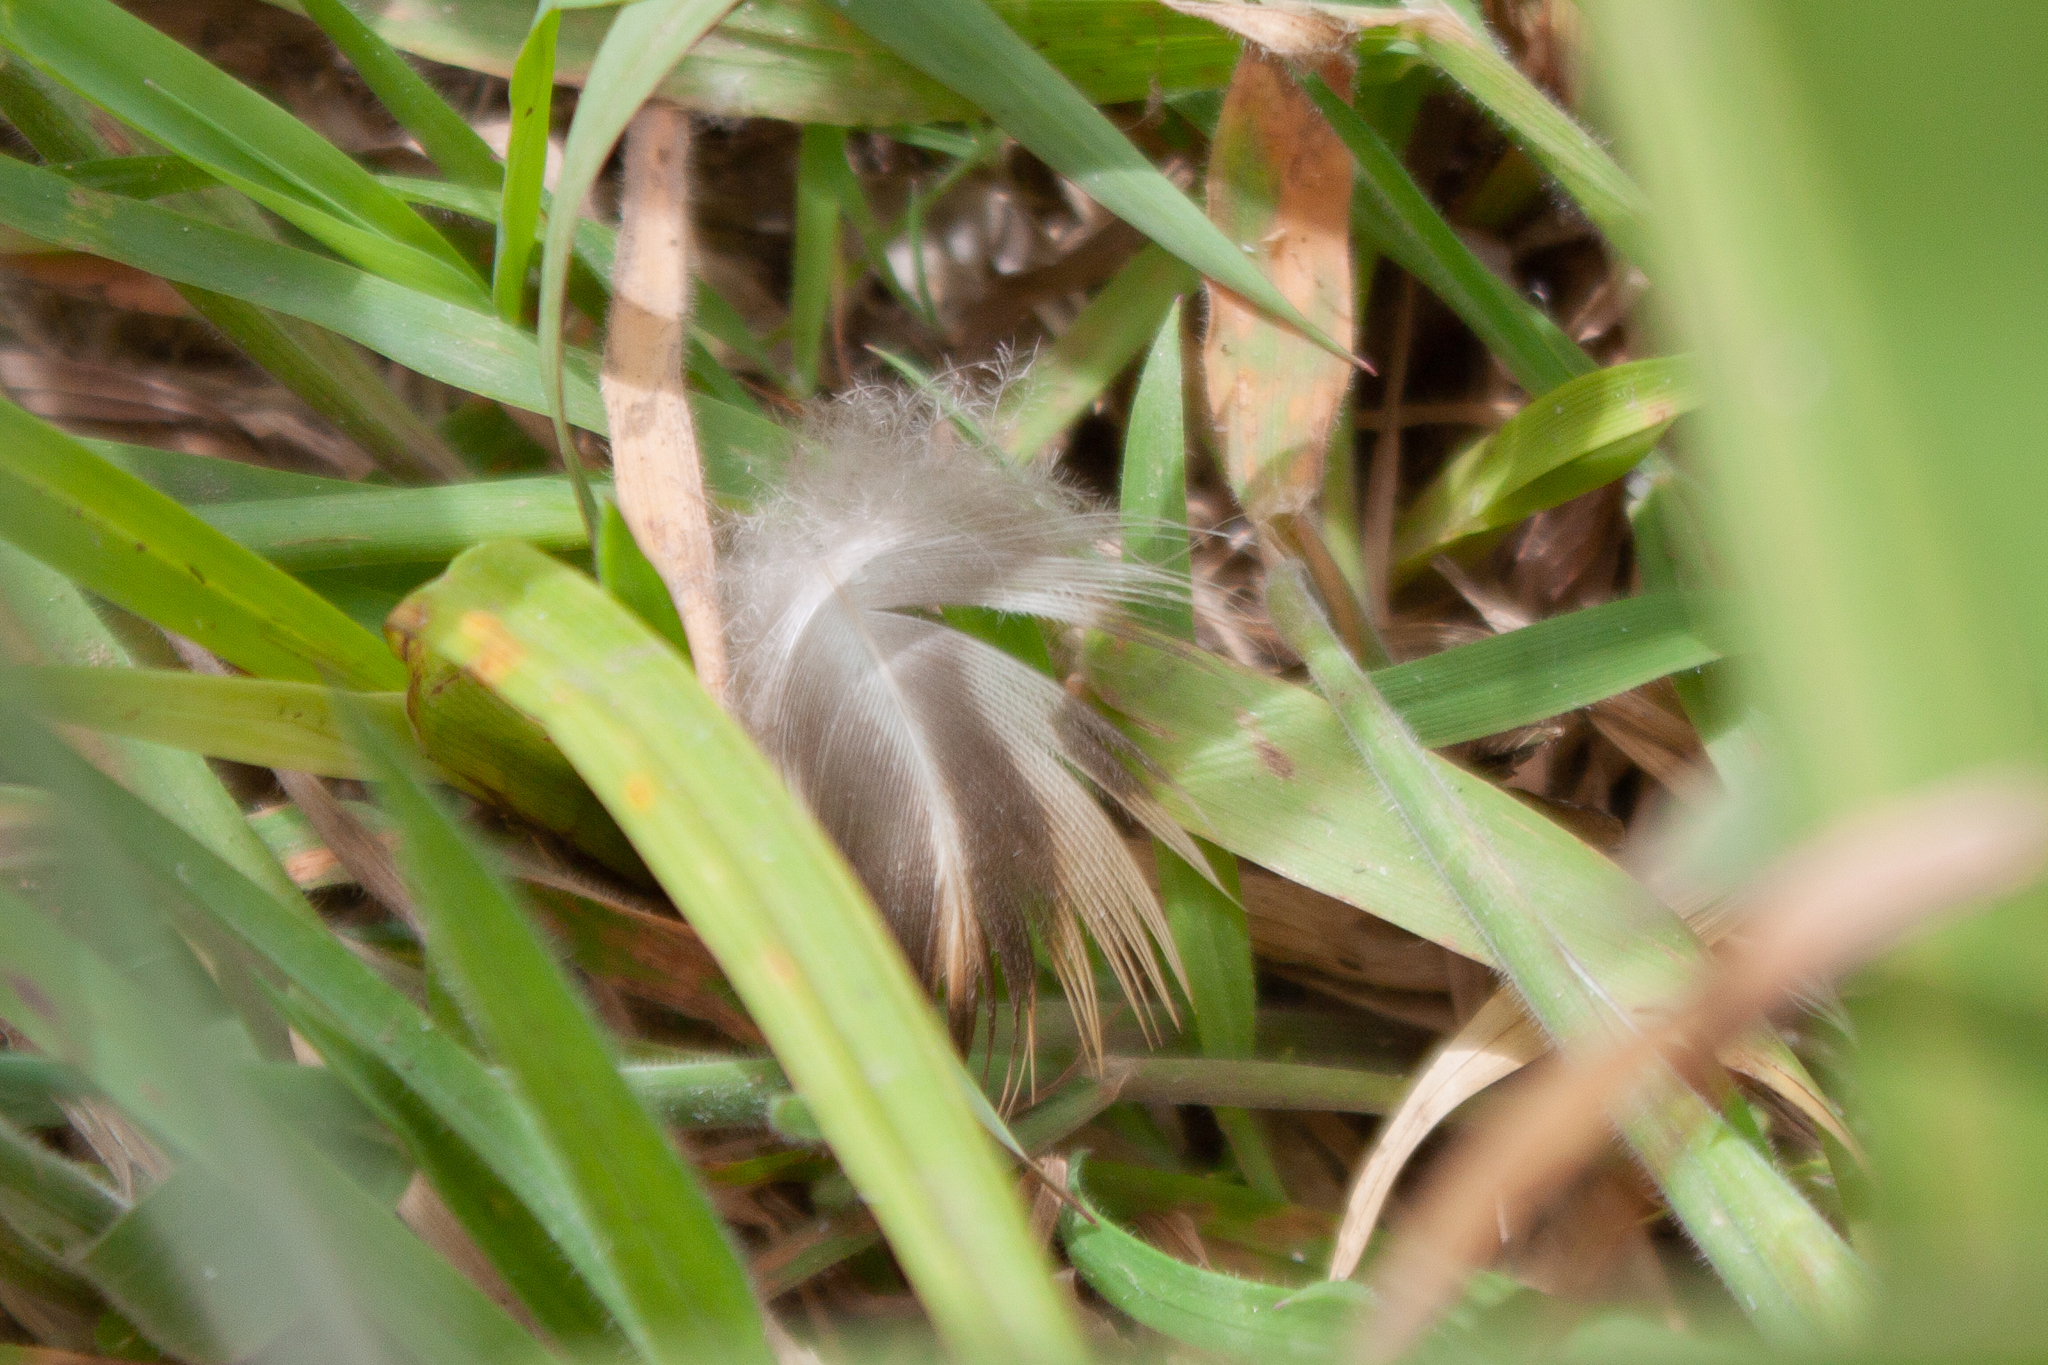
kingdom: Animalia
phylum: Chordata
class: Aves
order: Anseriformes
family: Anatidae
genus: Anas
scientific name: Anas platyrhynchos
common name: Mallard
